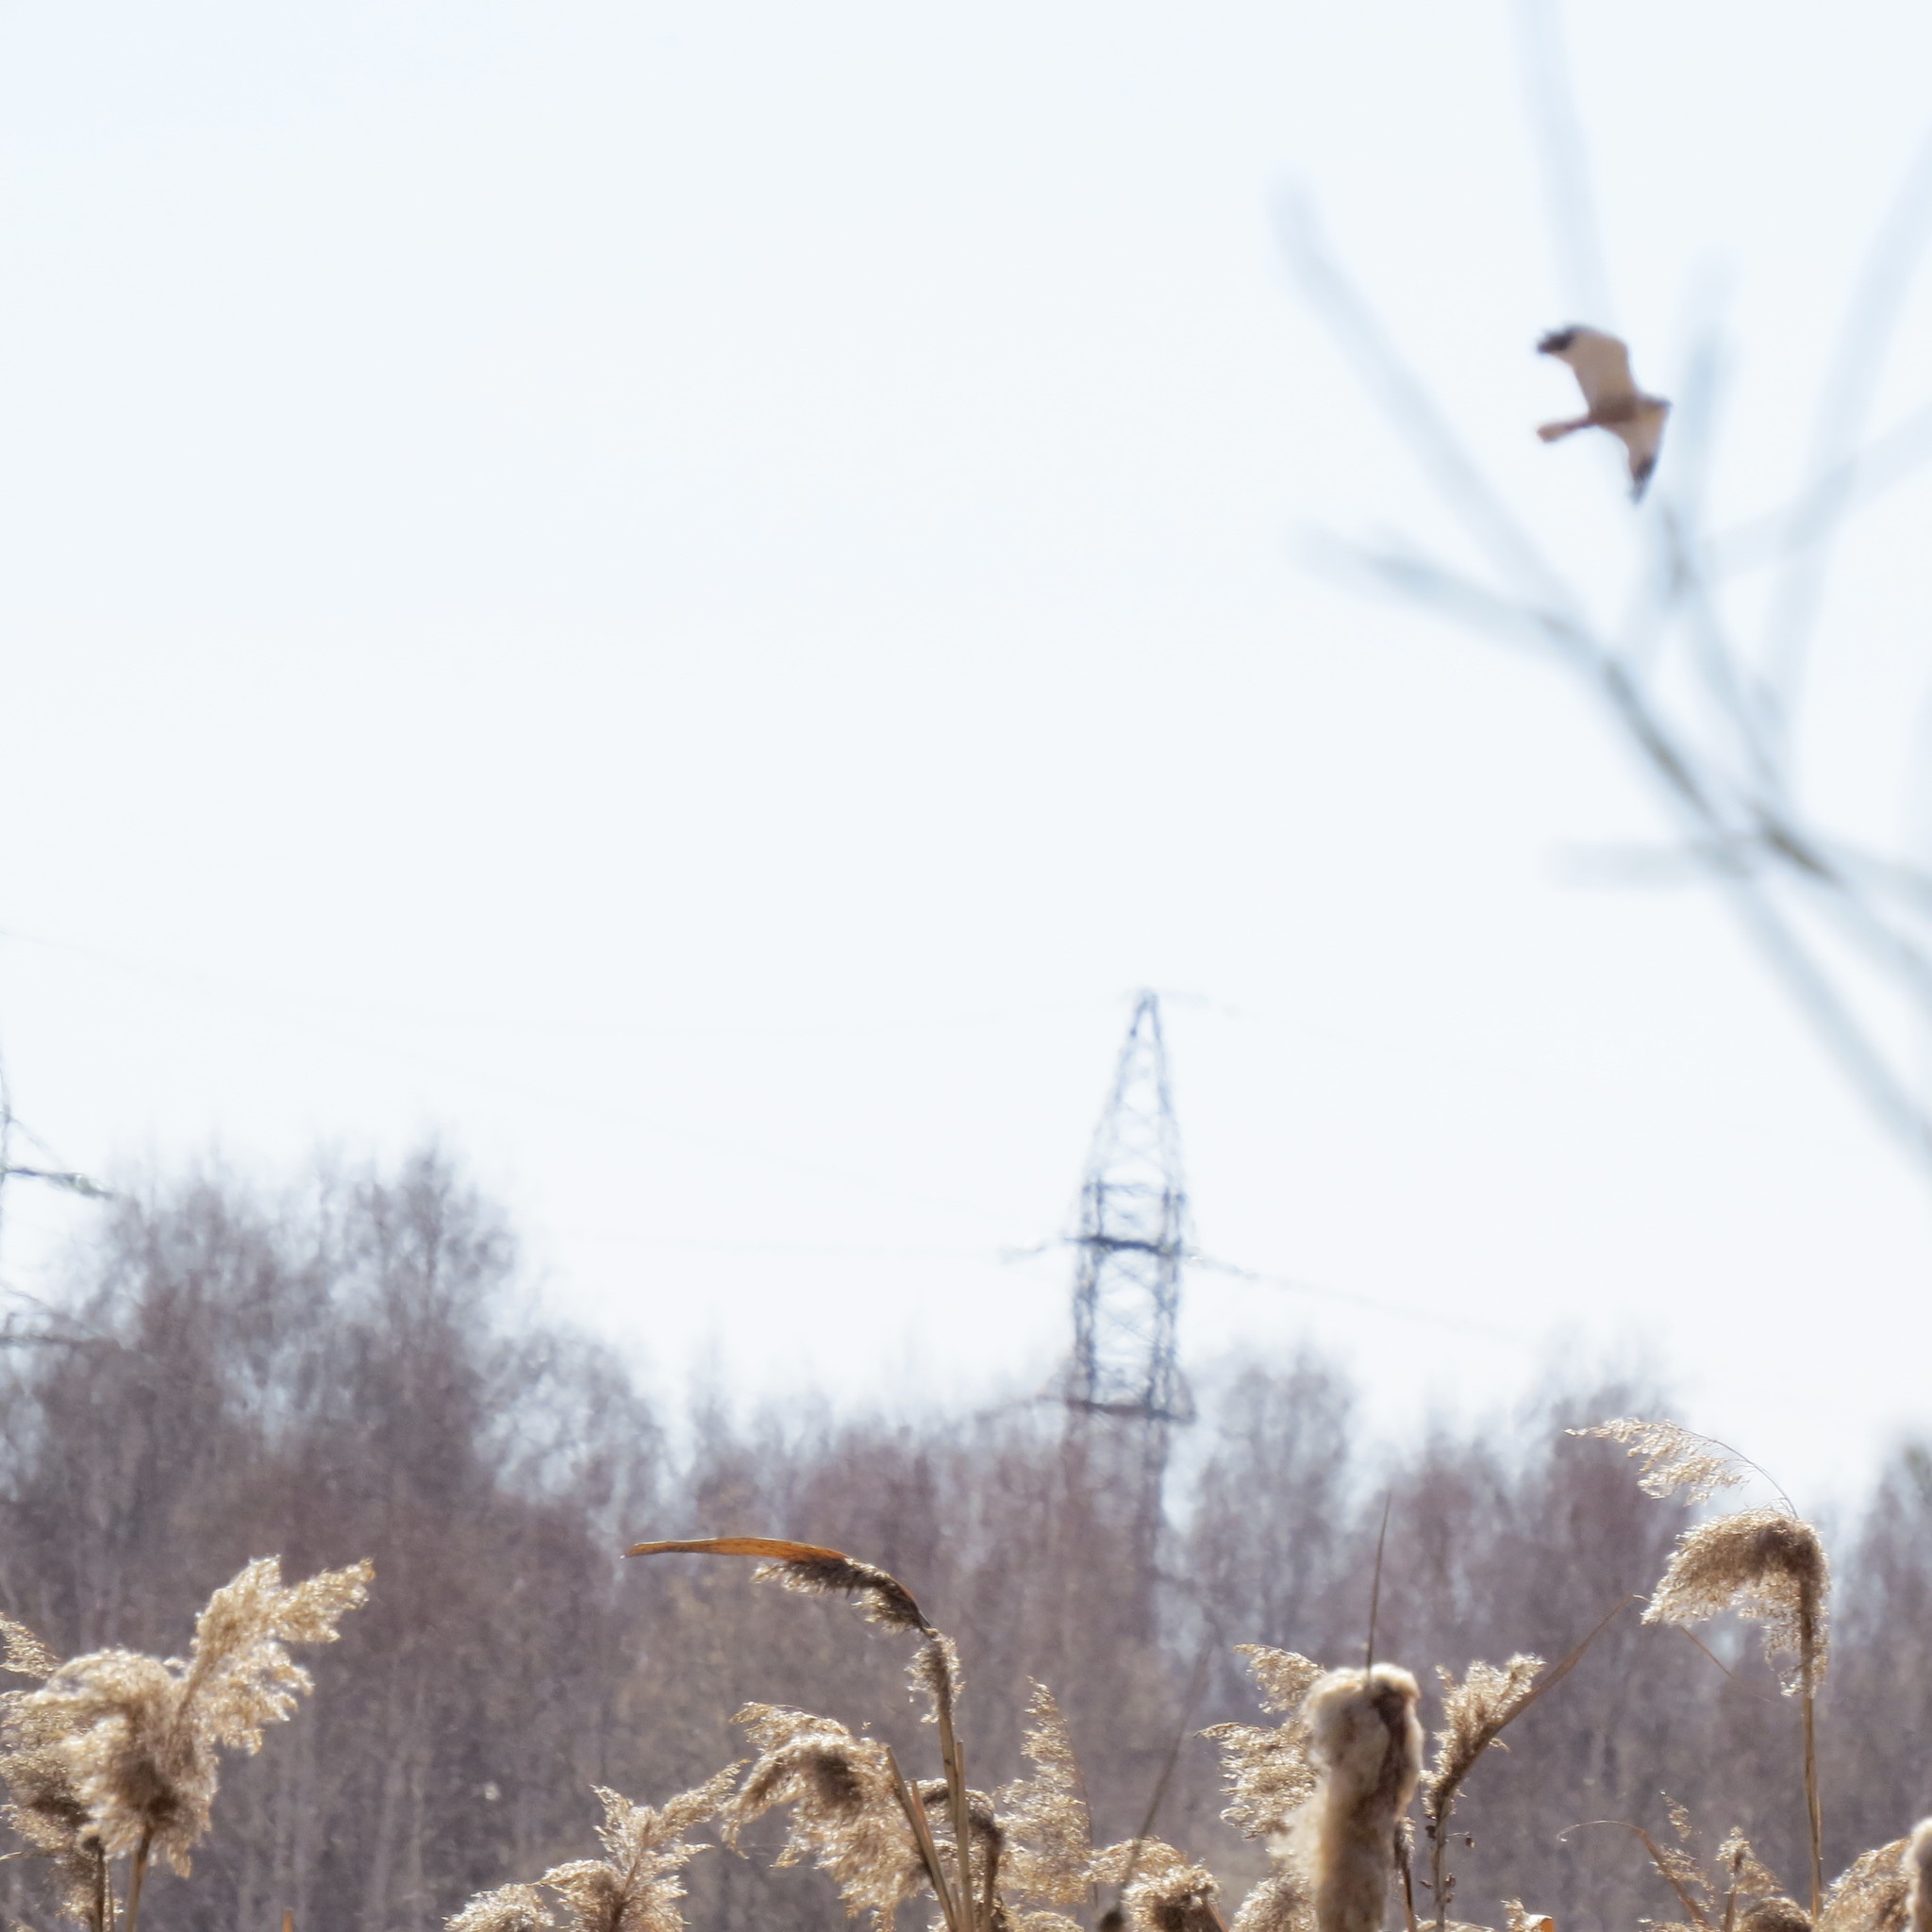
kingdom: Animalia
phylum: Chordata
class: Aves
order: Accipitriformes
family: Accipitridae
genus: Circus
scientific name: Circus aeruginosus
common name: Western marsh harrier
